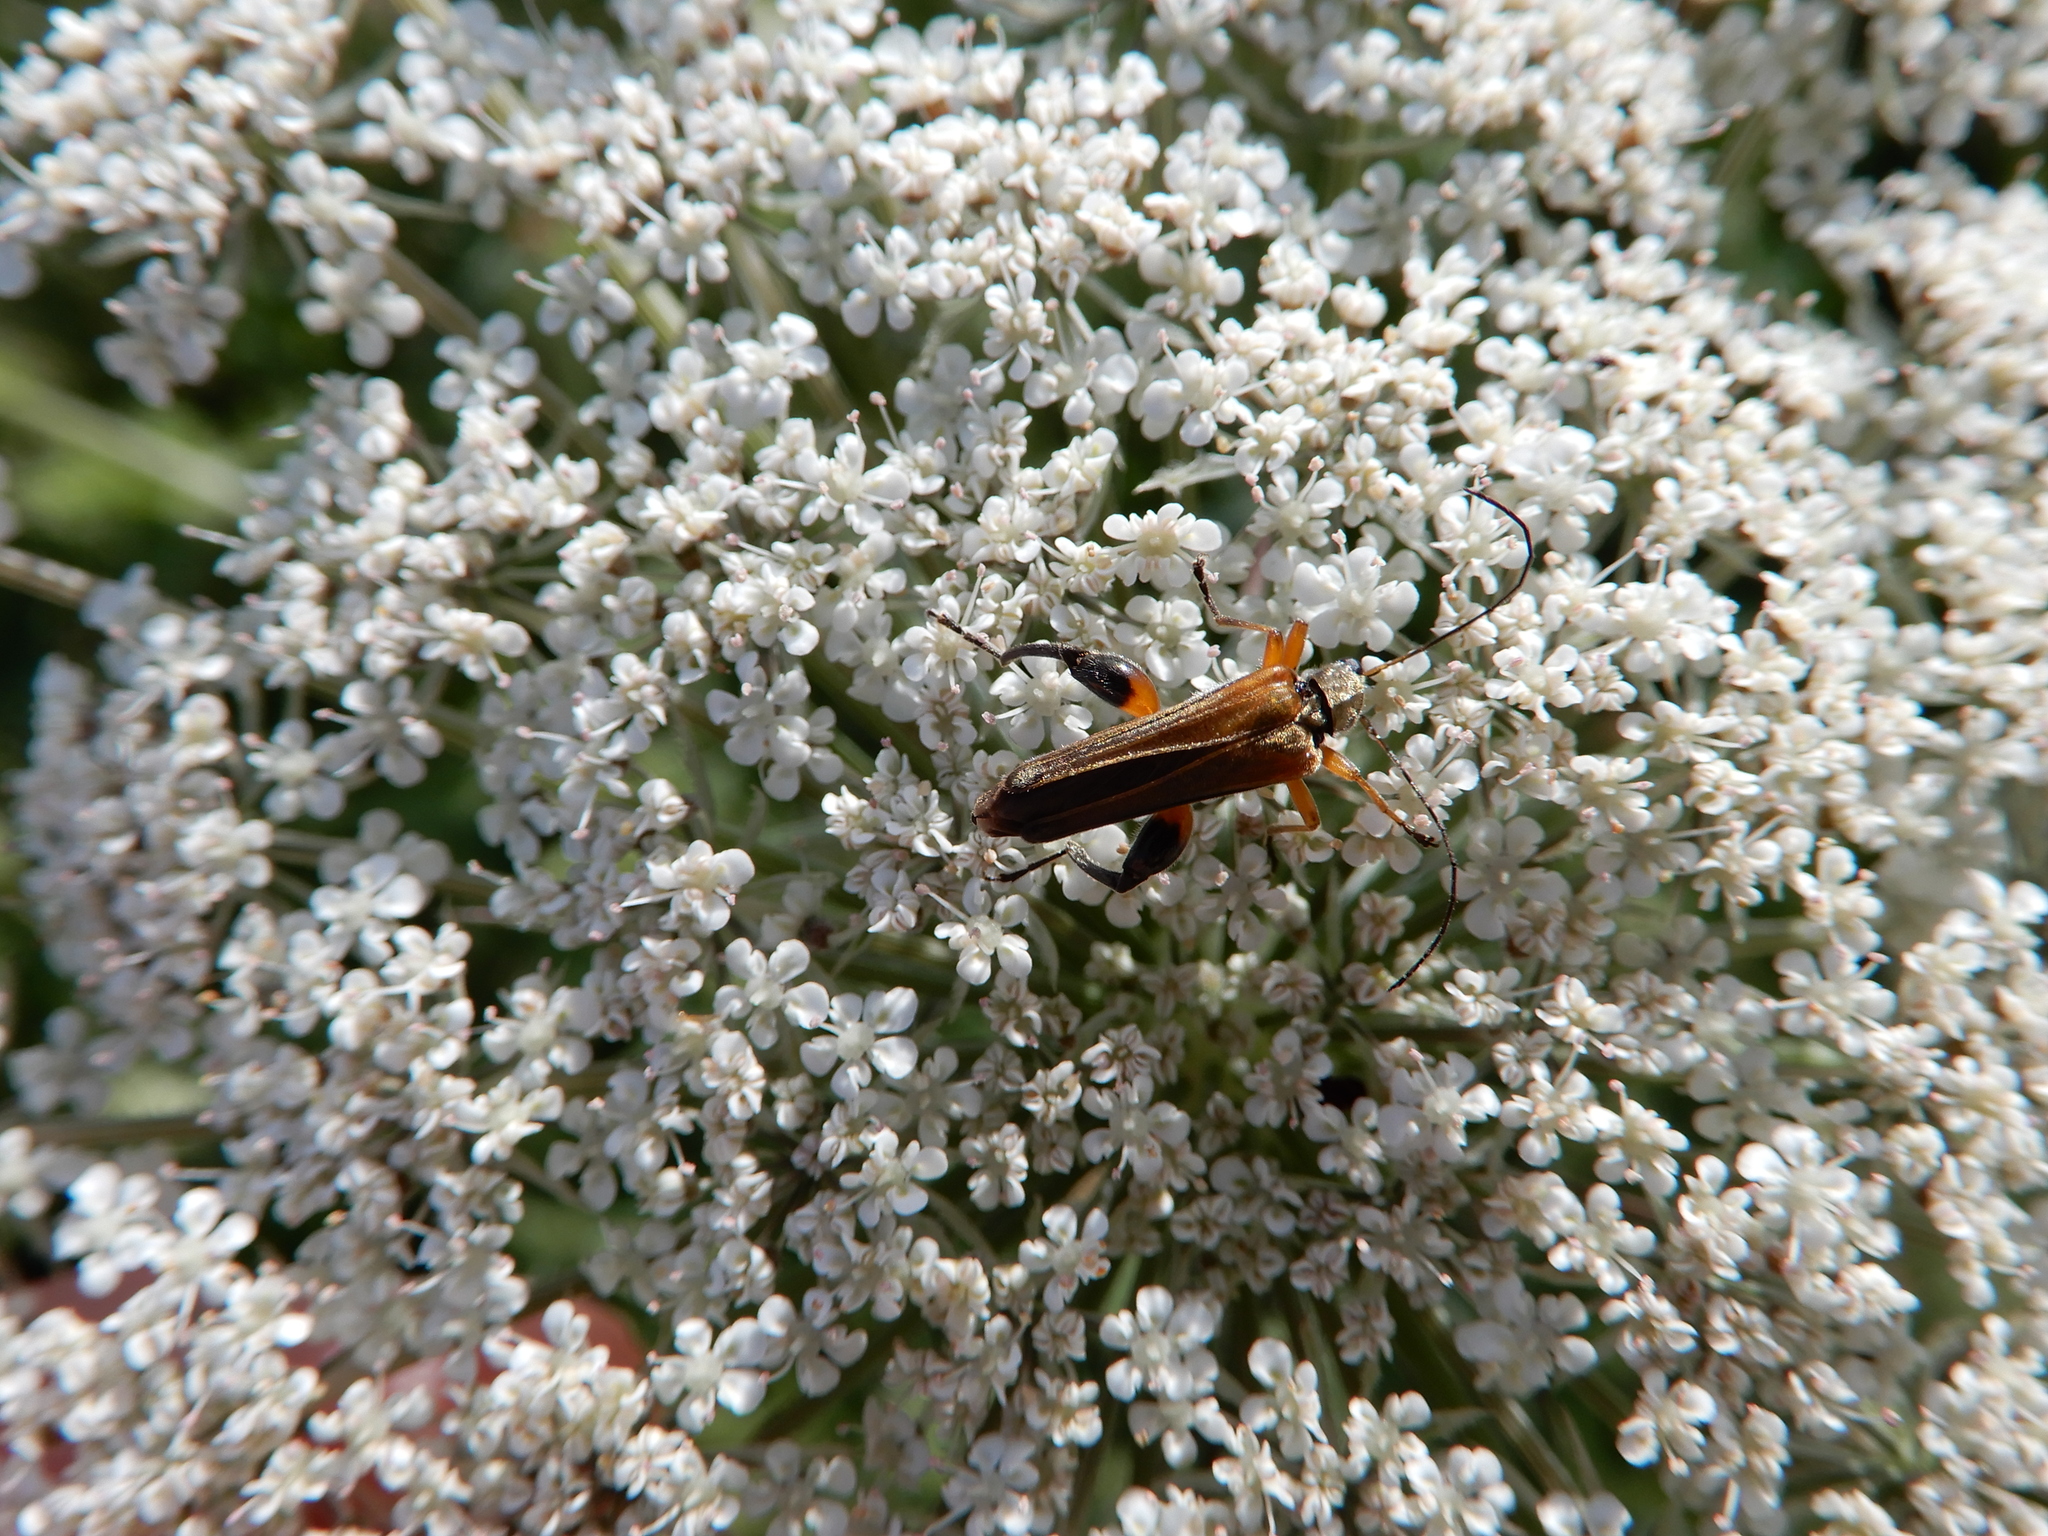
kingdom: Animalia
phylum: Arthropoda
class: Insecta
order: Coleoptera
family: Oedemeridae
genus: Oedemera
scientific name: Oedemera podagrariae
